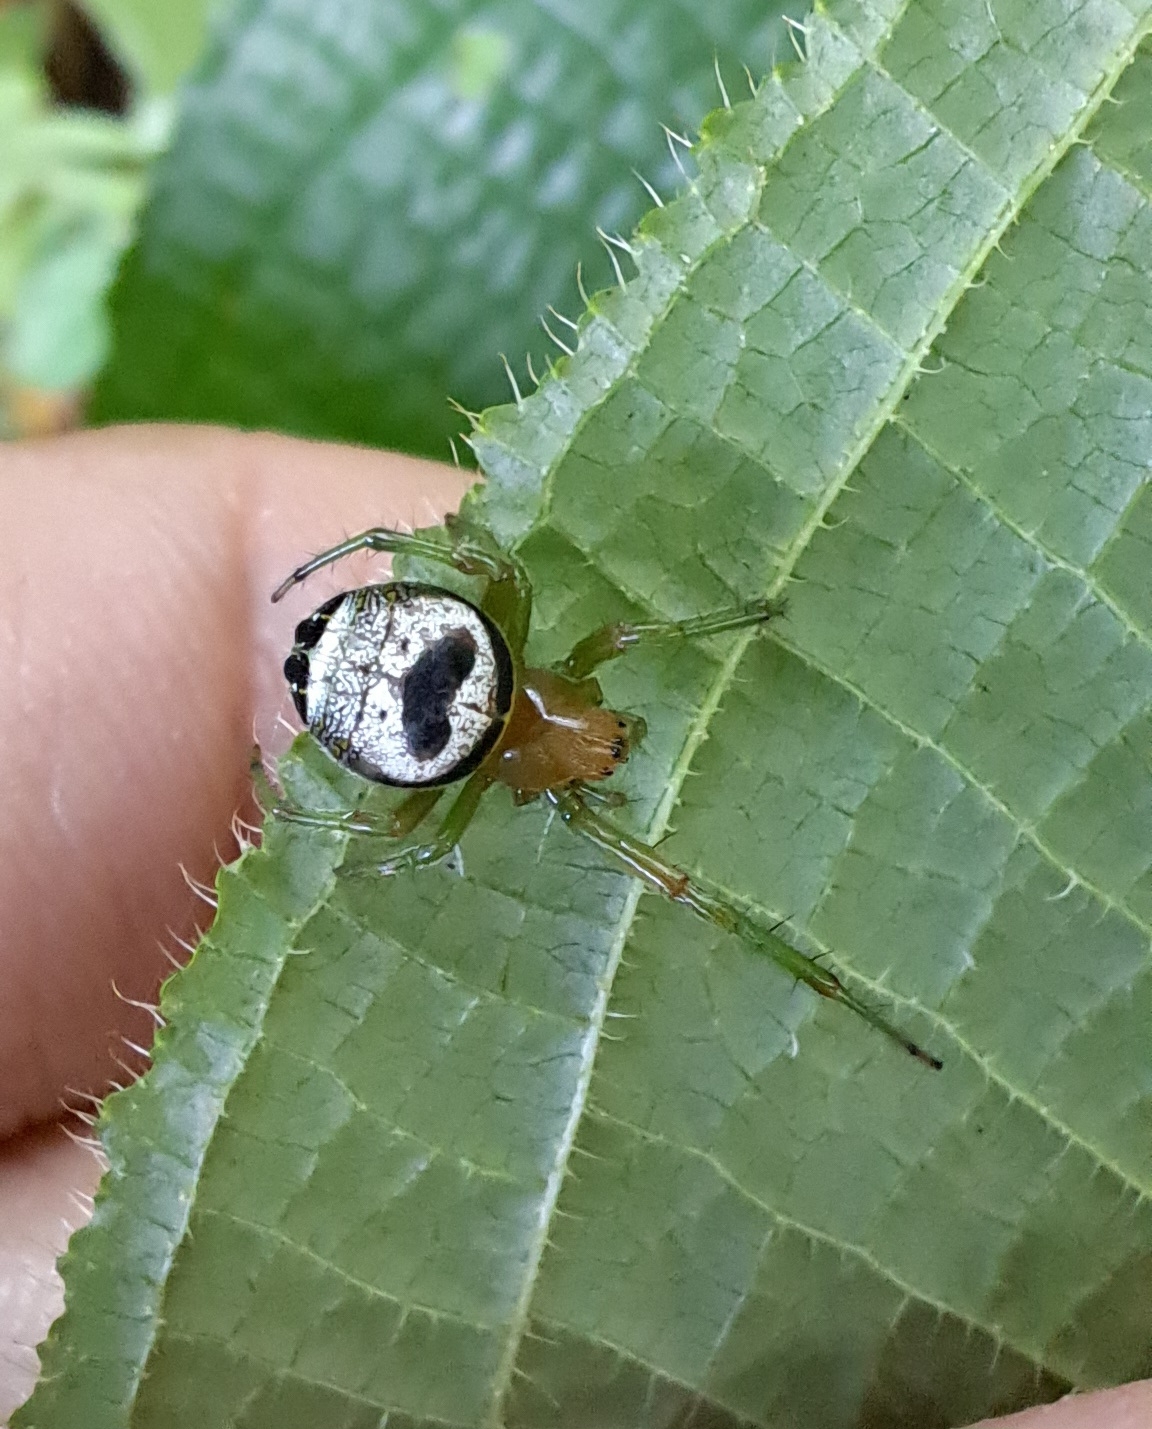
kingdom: Animalia
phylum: Arthropoda
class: Arachnida
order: Araneae
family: Araneidae
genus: Bijoaraneus
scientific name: Bijoaraneus mitificus
